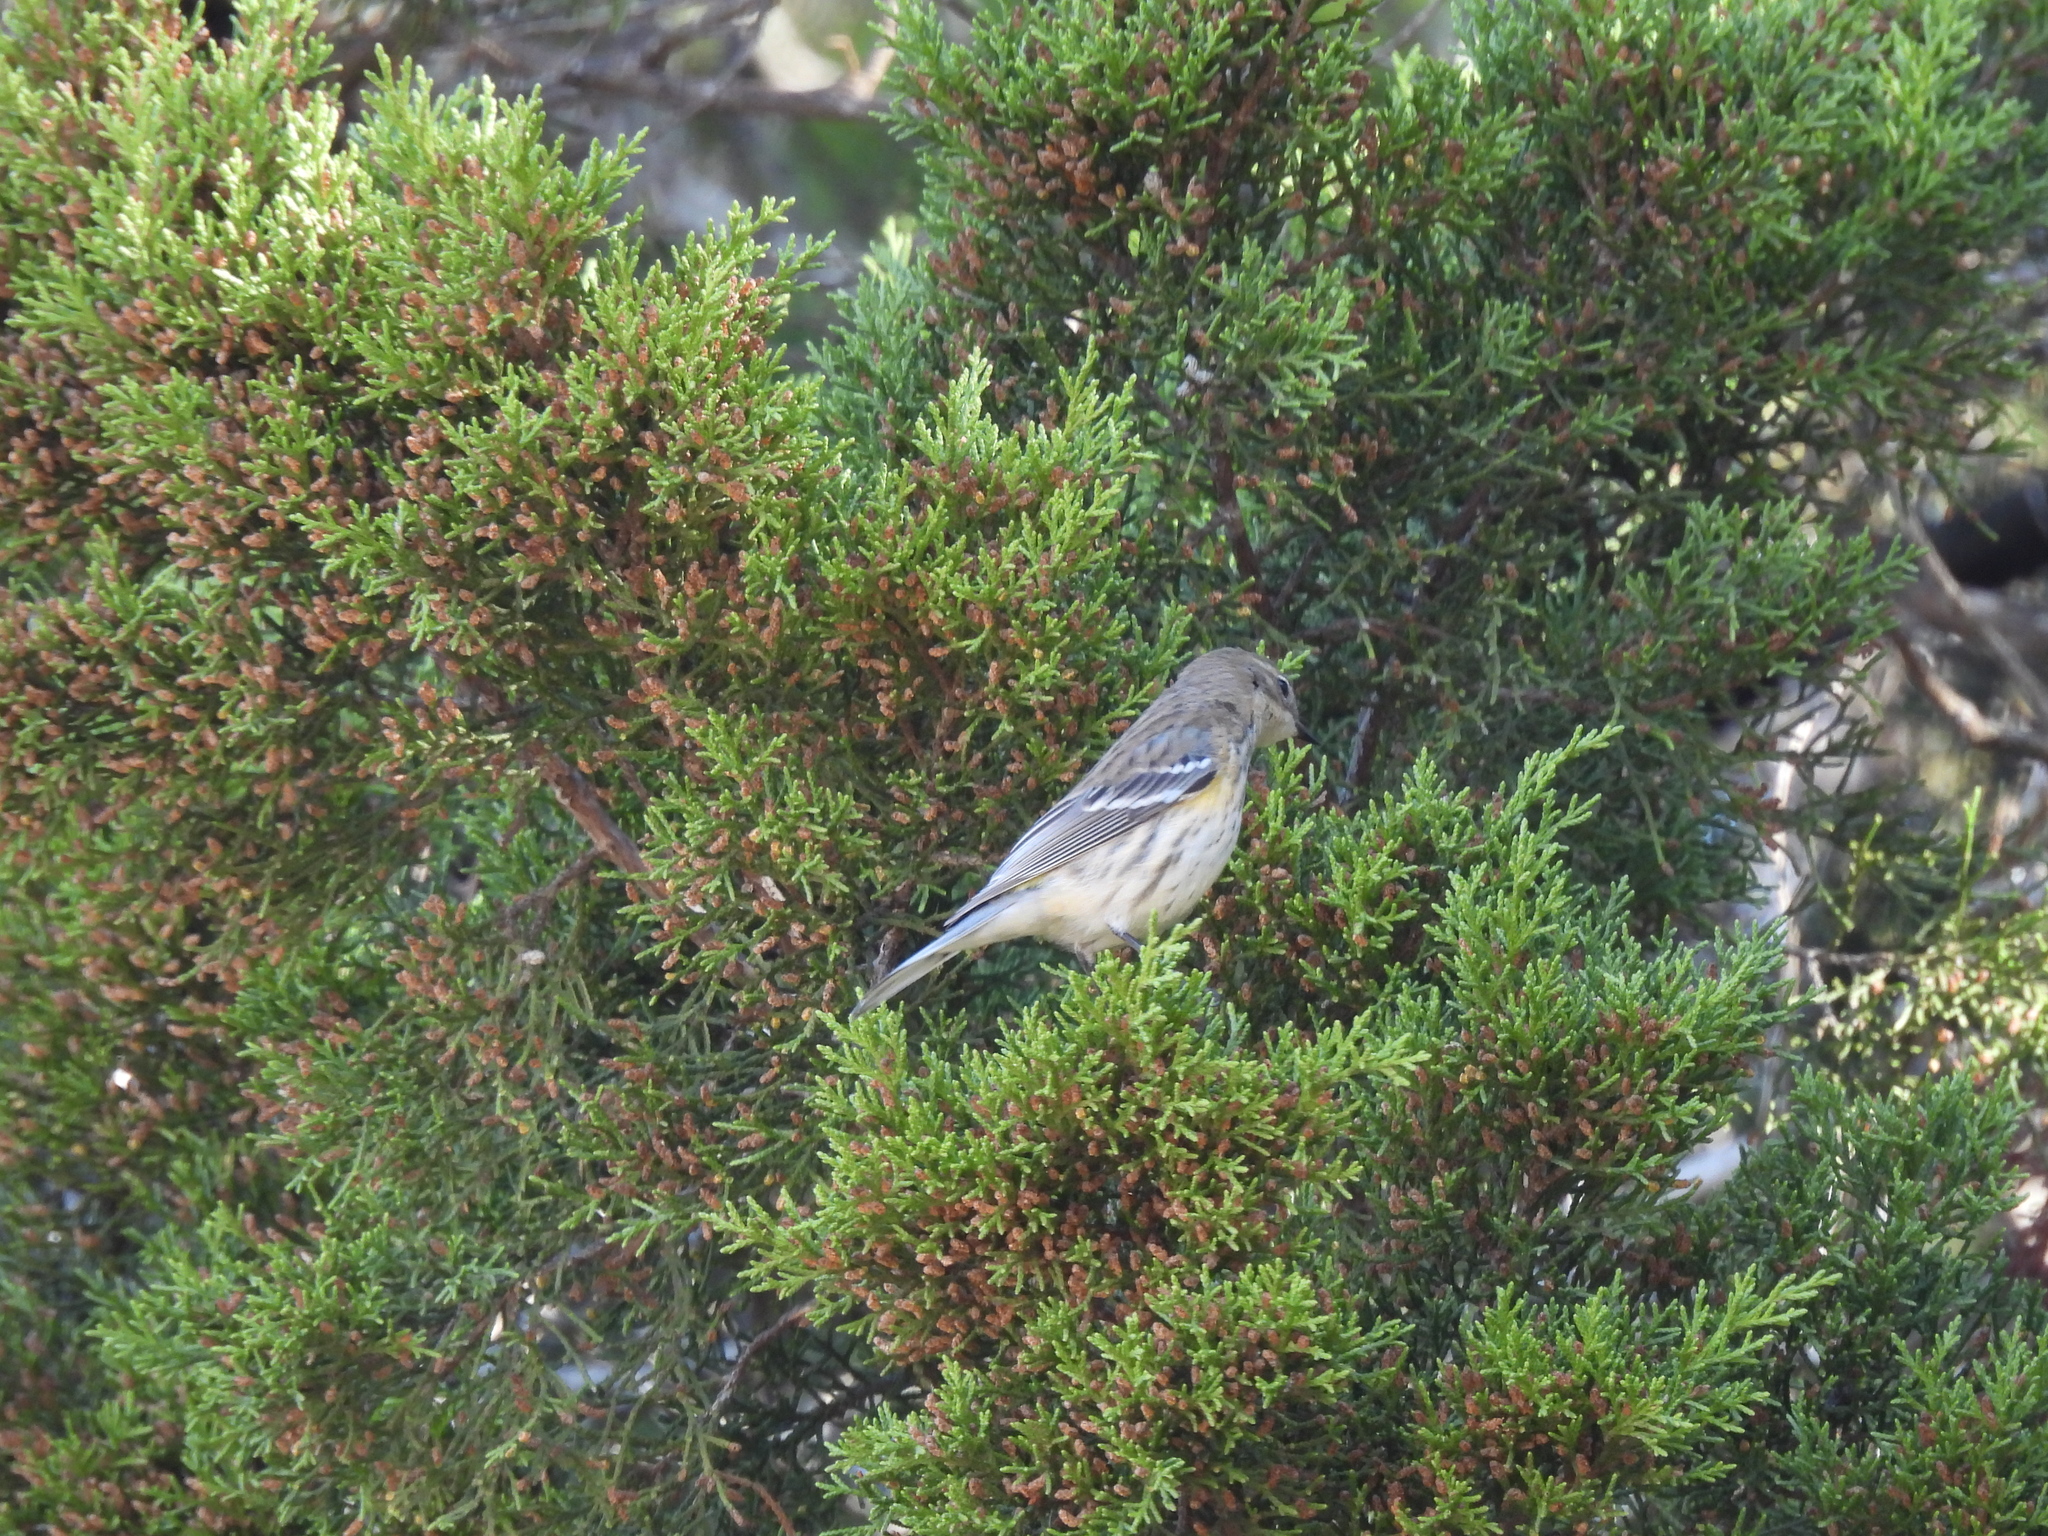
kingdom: Animalia
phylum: Chordata
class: Aves
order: Passeriformes
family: Parulidae
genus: Setophaga
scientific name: Setophaga coronata
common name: Myrtle warbler
